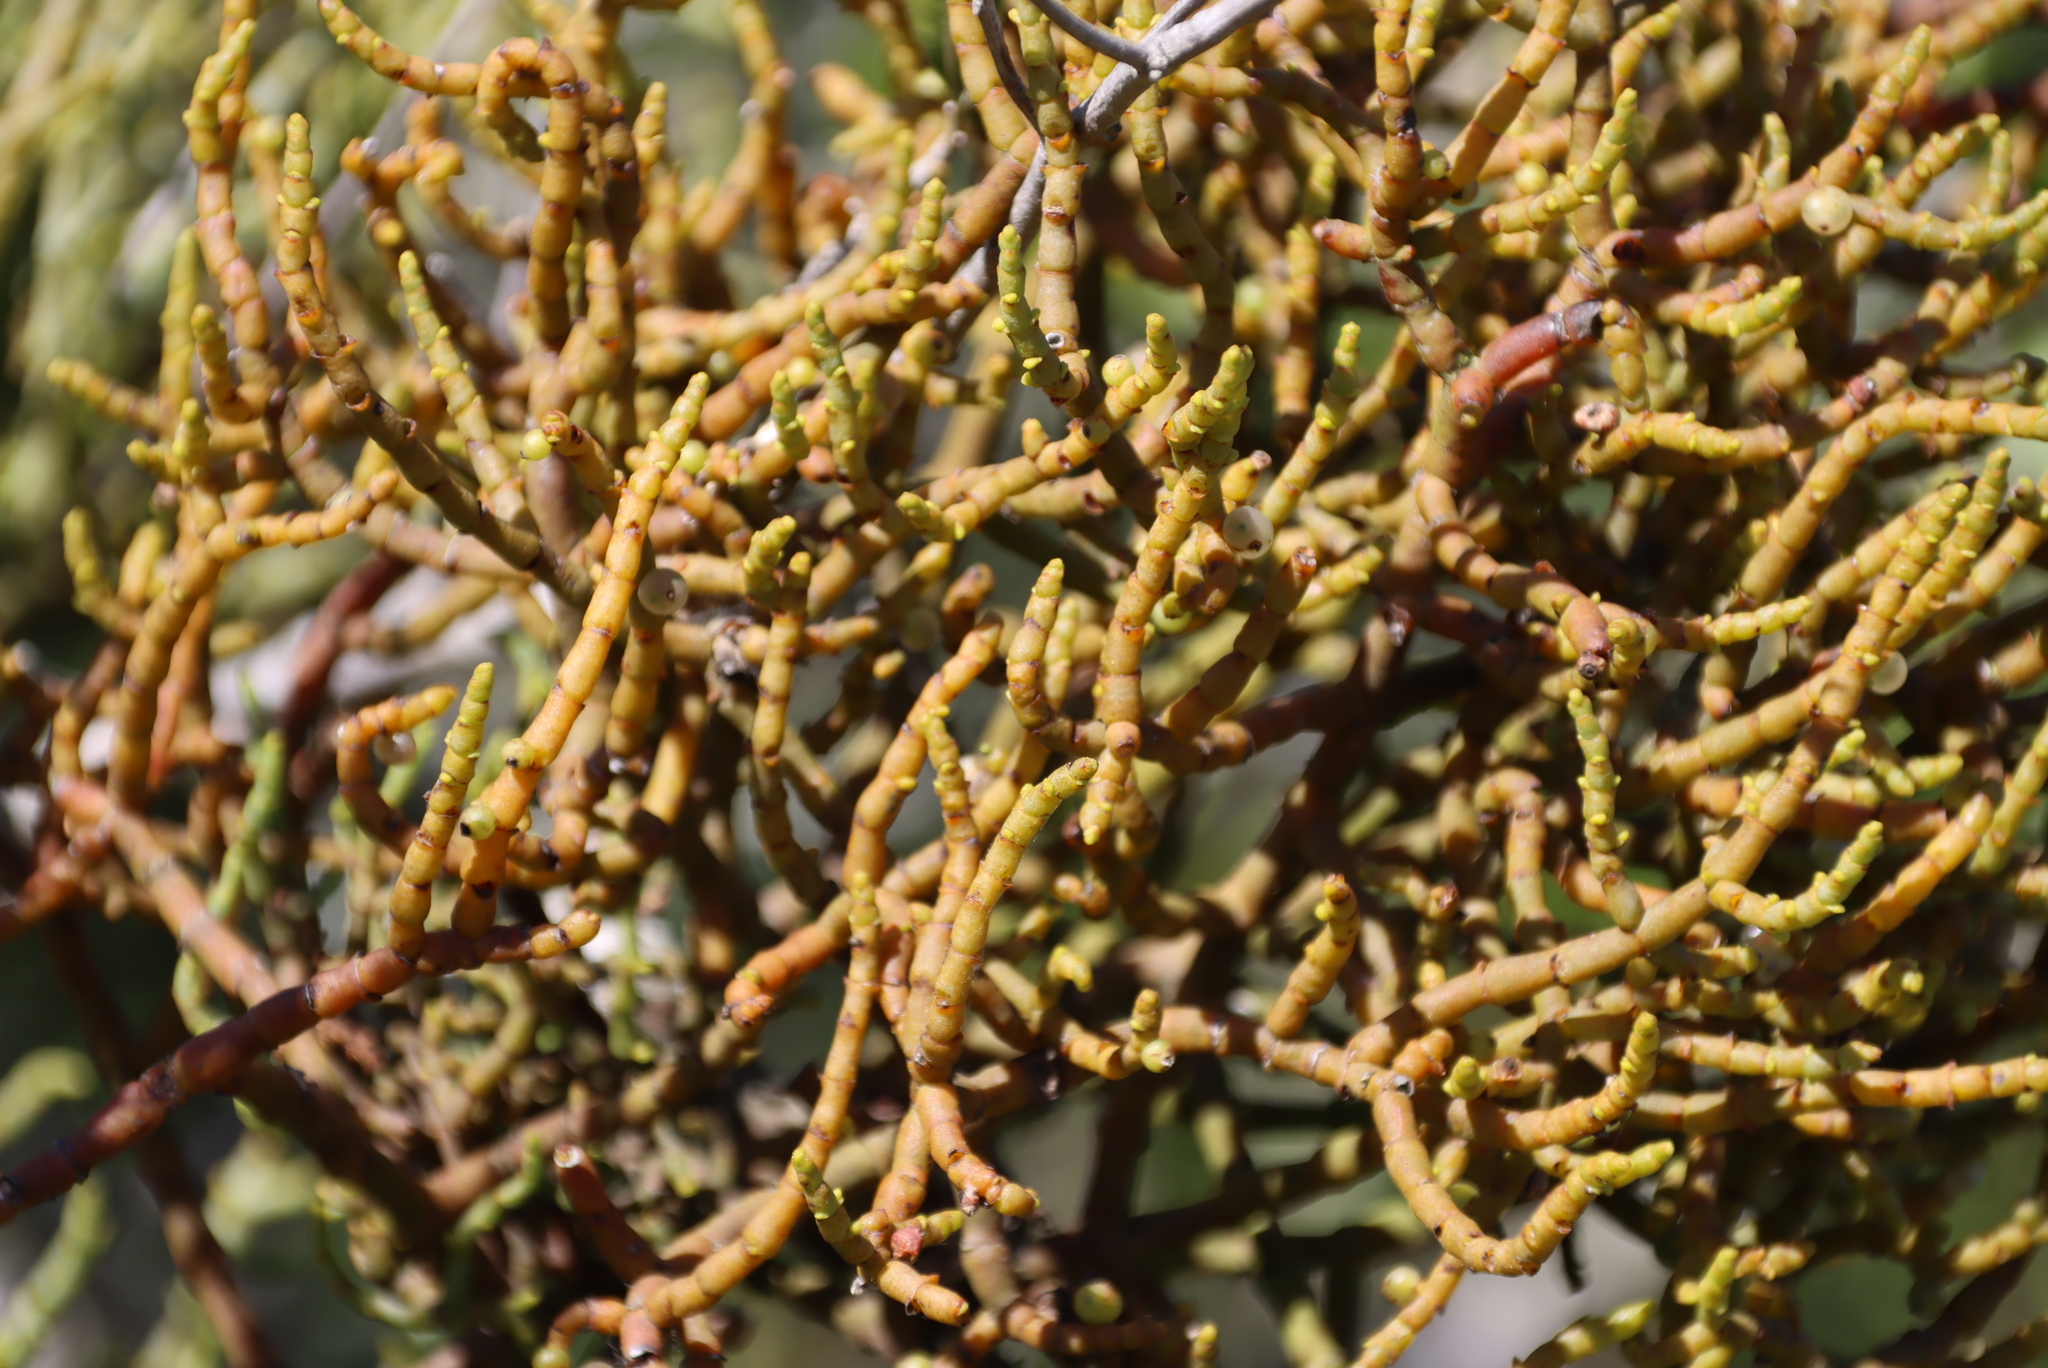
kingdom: Plantae
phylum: Tracheophyta
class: Magnoliopsida
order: Santalales
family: Viscaceae
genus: Viscum
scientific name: Viscum capense
